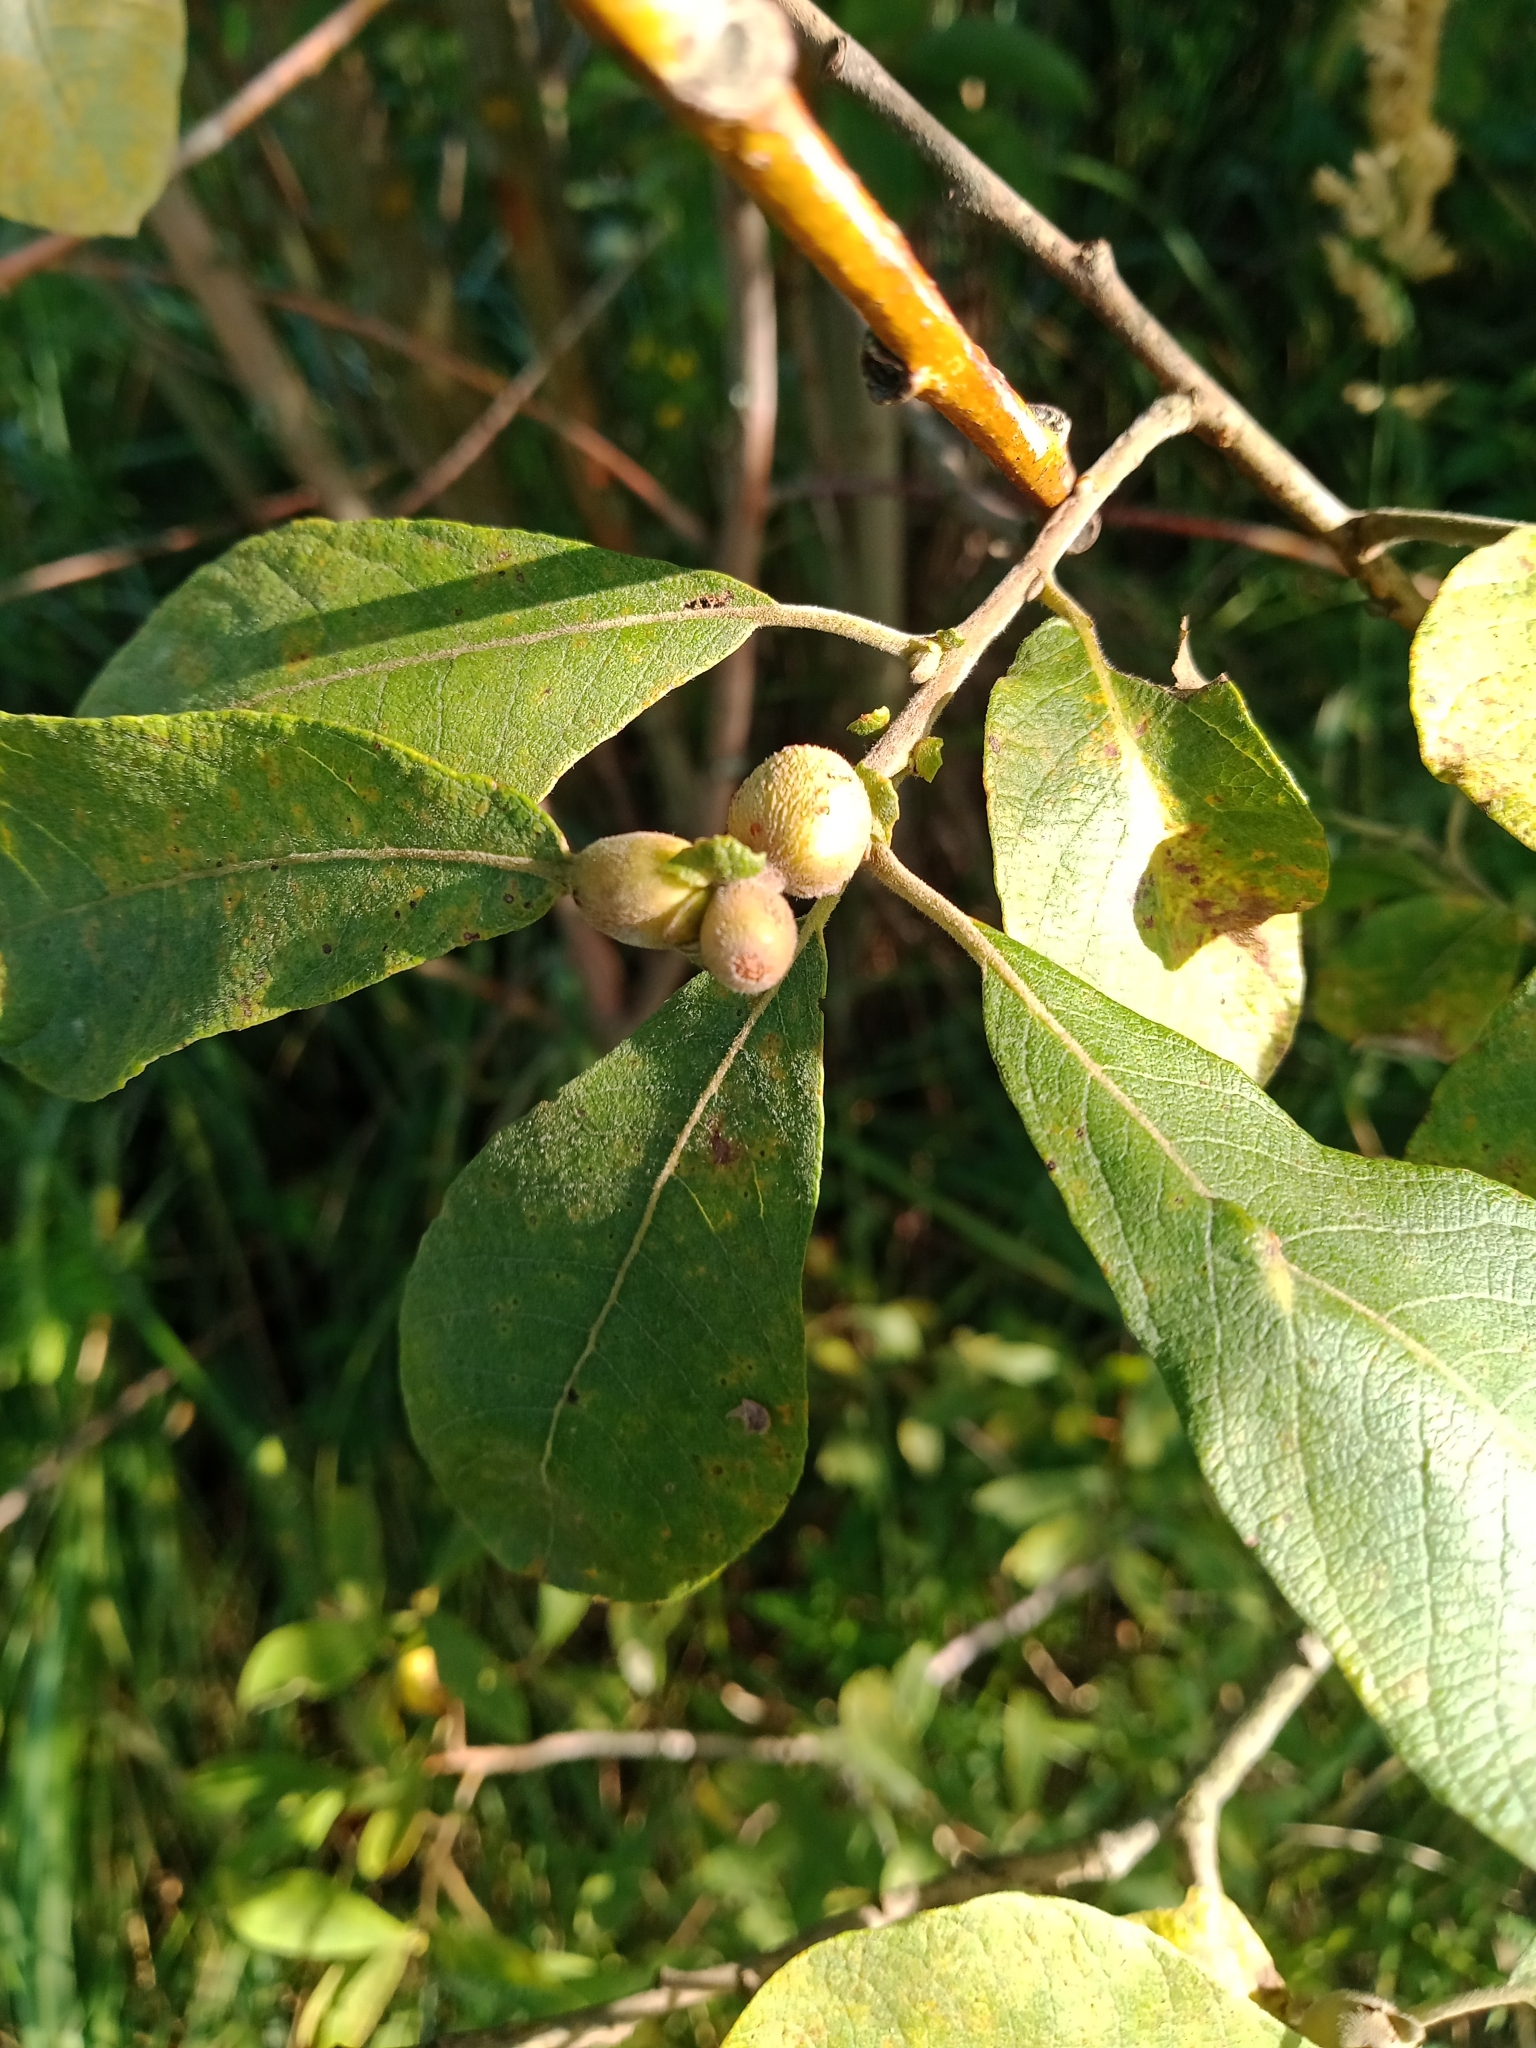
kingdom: Animalia
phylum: Arthropoda
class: Insecta
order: Diptera
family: Cecidomyiidae
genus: Rabdophaga
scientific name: Rabdophaga salicis
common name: Willow twig gall midge
